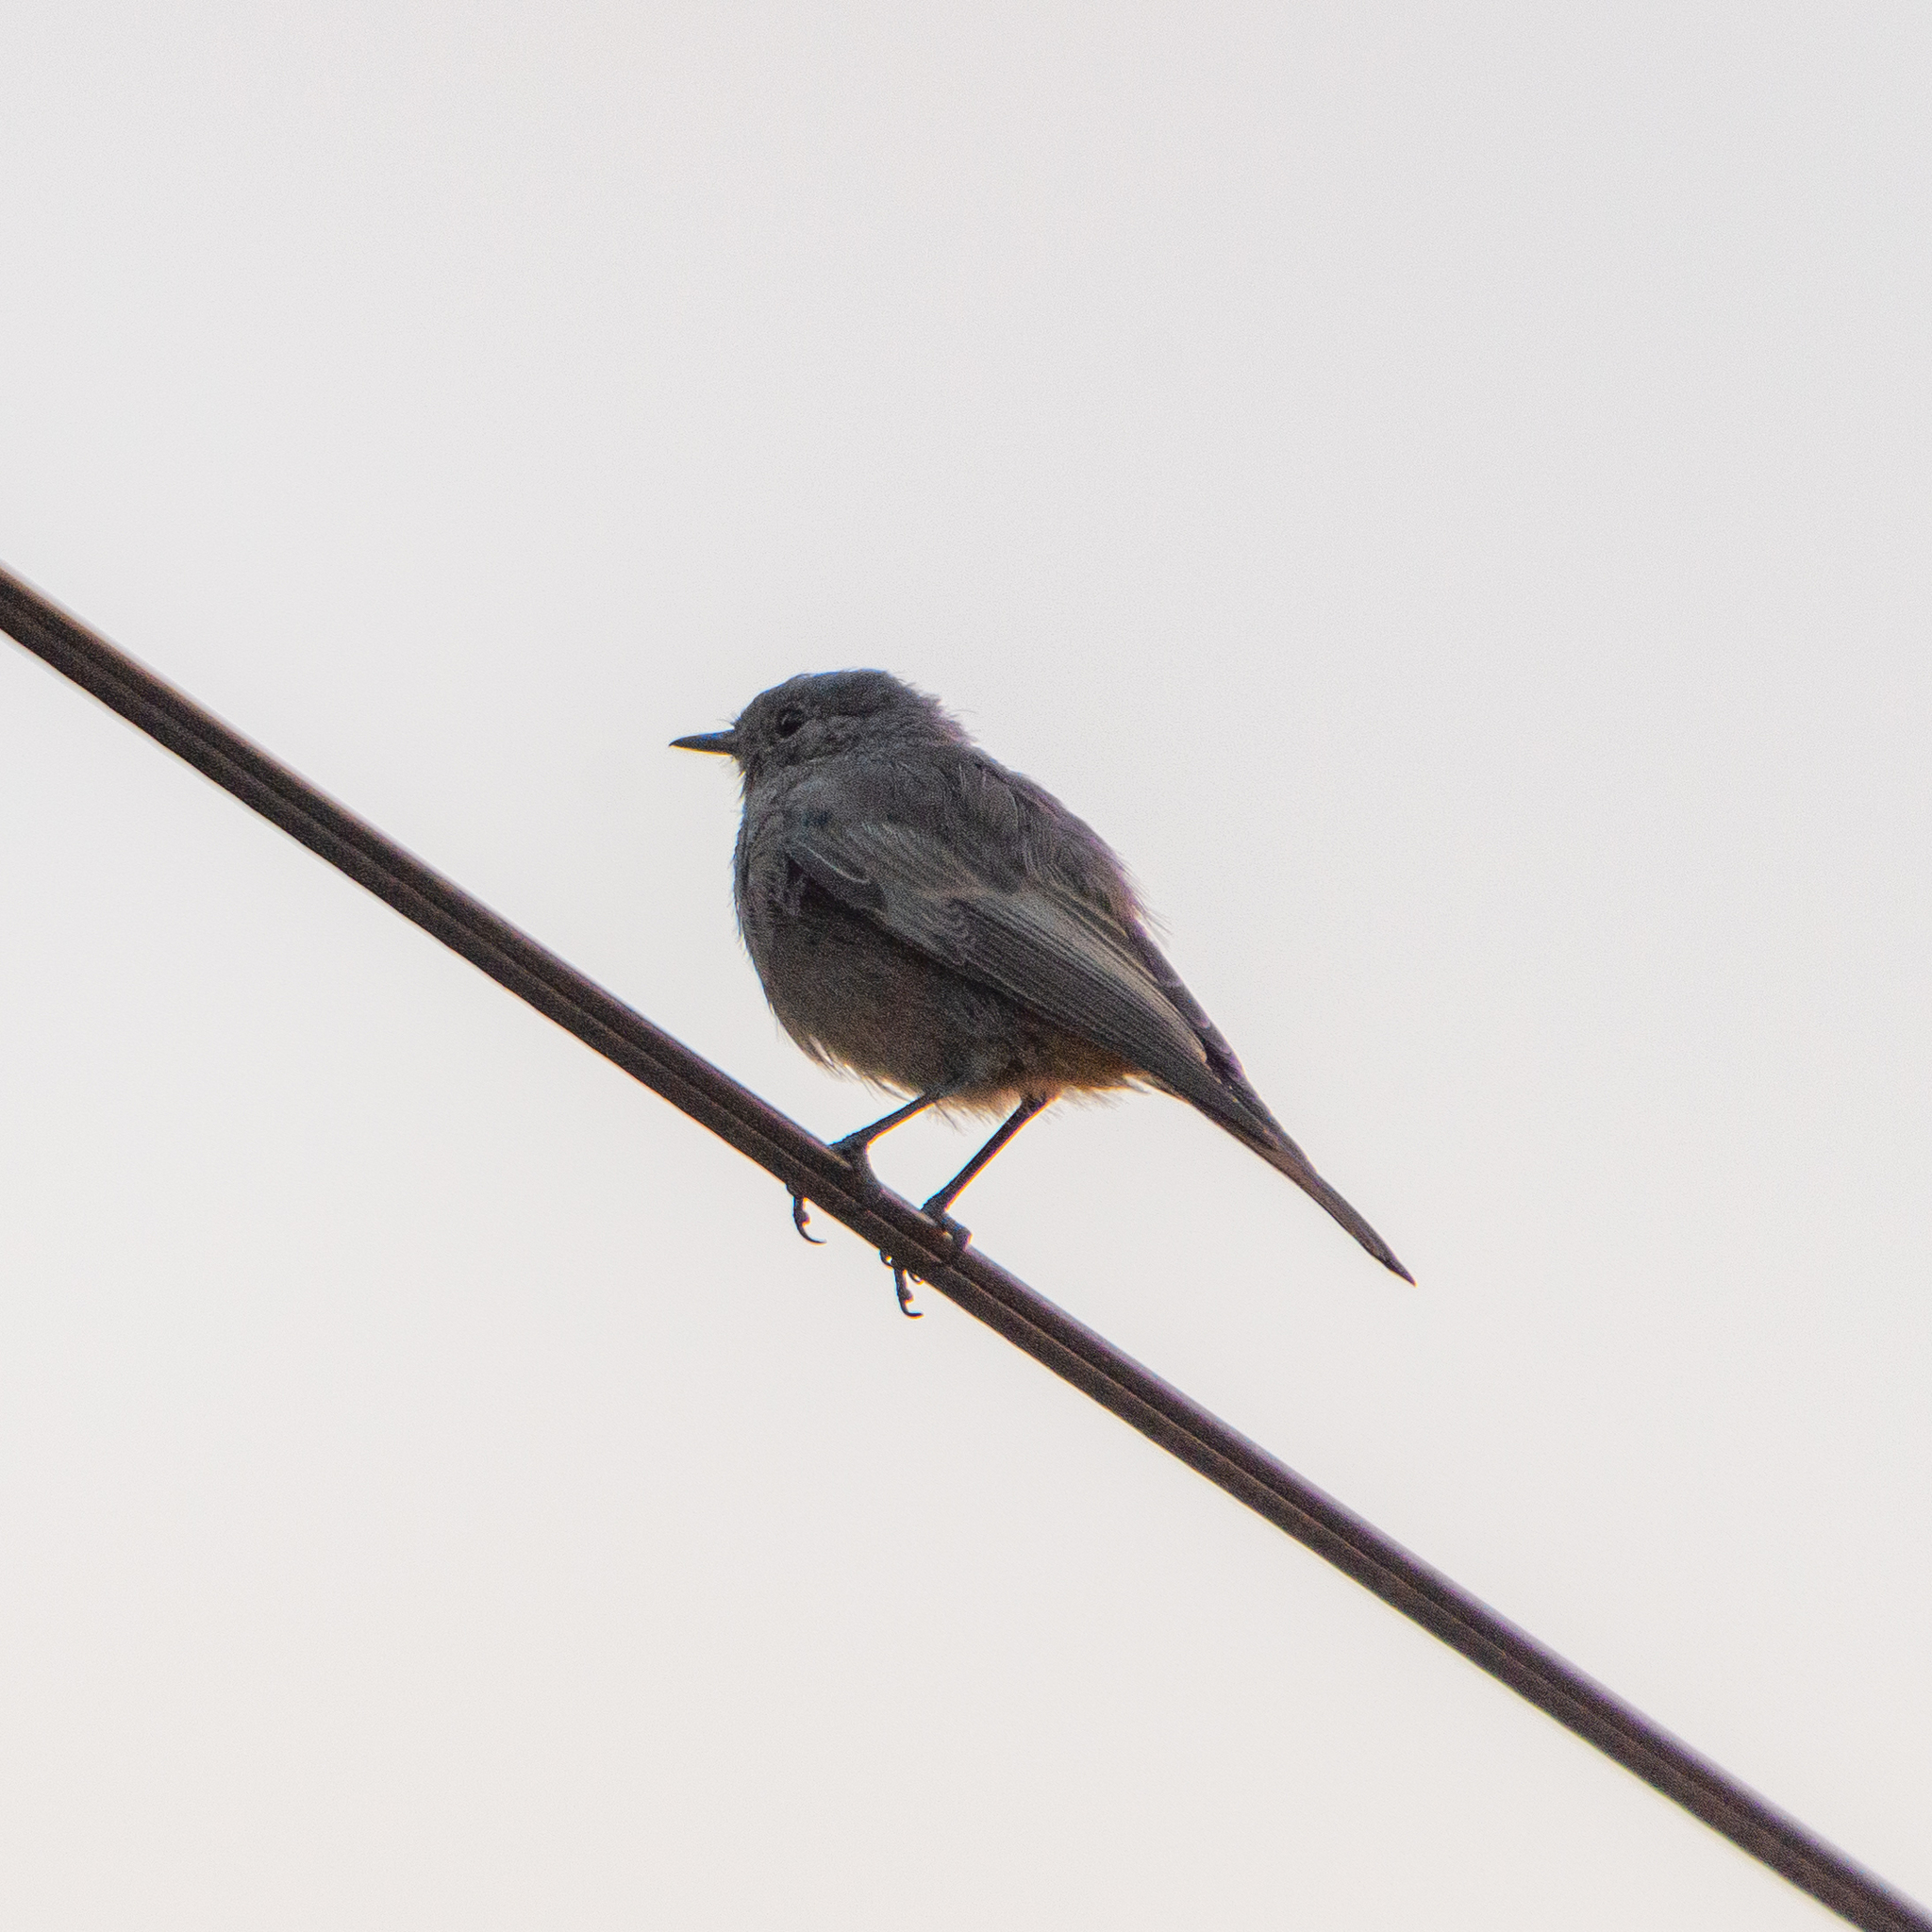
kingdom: Animalia
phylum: Chordata
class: Aves
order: Passeriformes
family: Muscicapidae
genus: Phoenicurus
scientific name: Phoenicurus ochruros
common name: Black redstart
